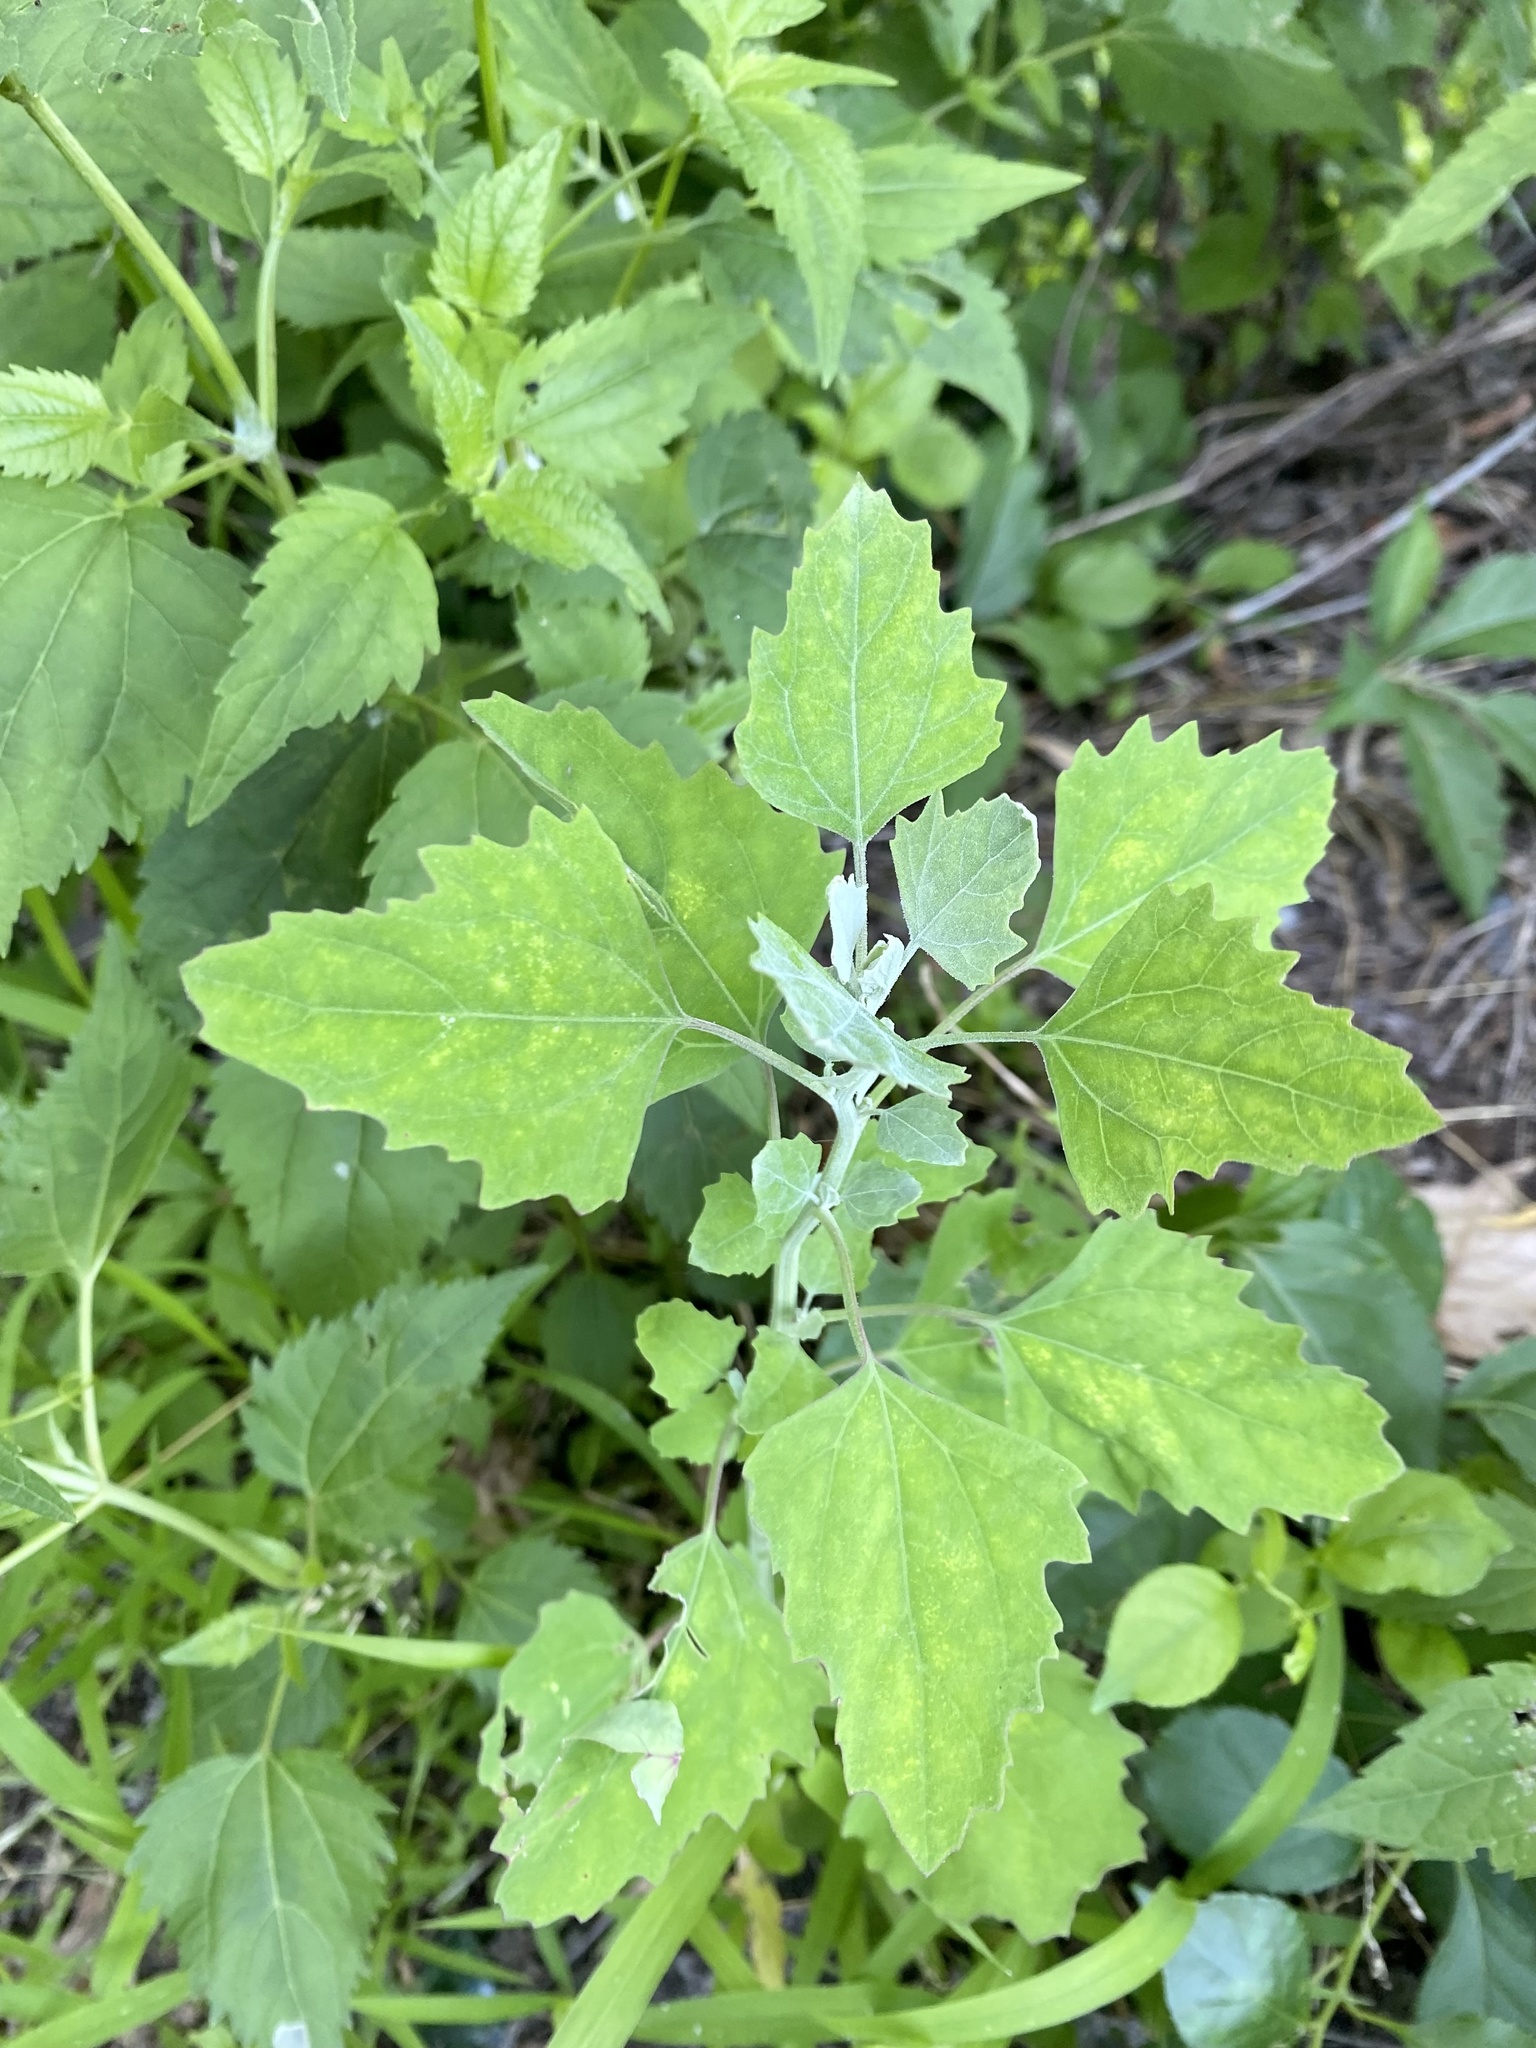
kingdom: Plantae
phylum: Tracheophyta
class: Magnoliopsida
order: Caryophyllales
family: Amaranthaceae
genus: Chenopodium
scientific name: Chenopodium album
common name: Fat-hen
